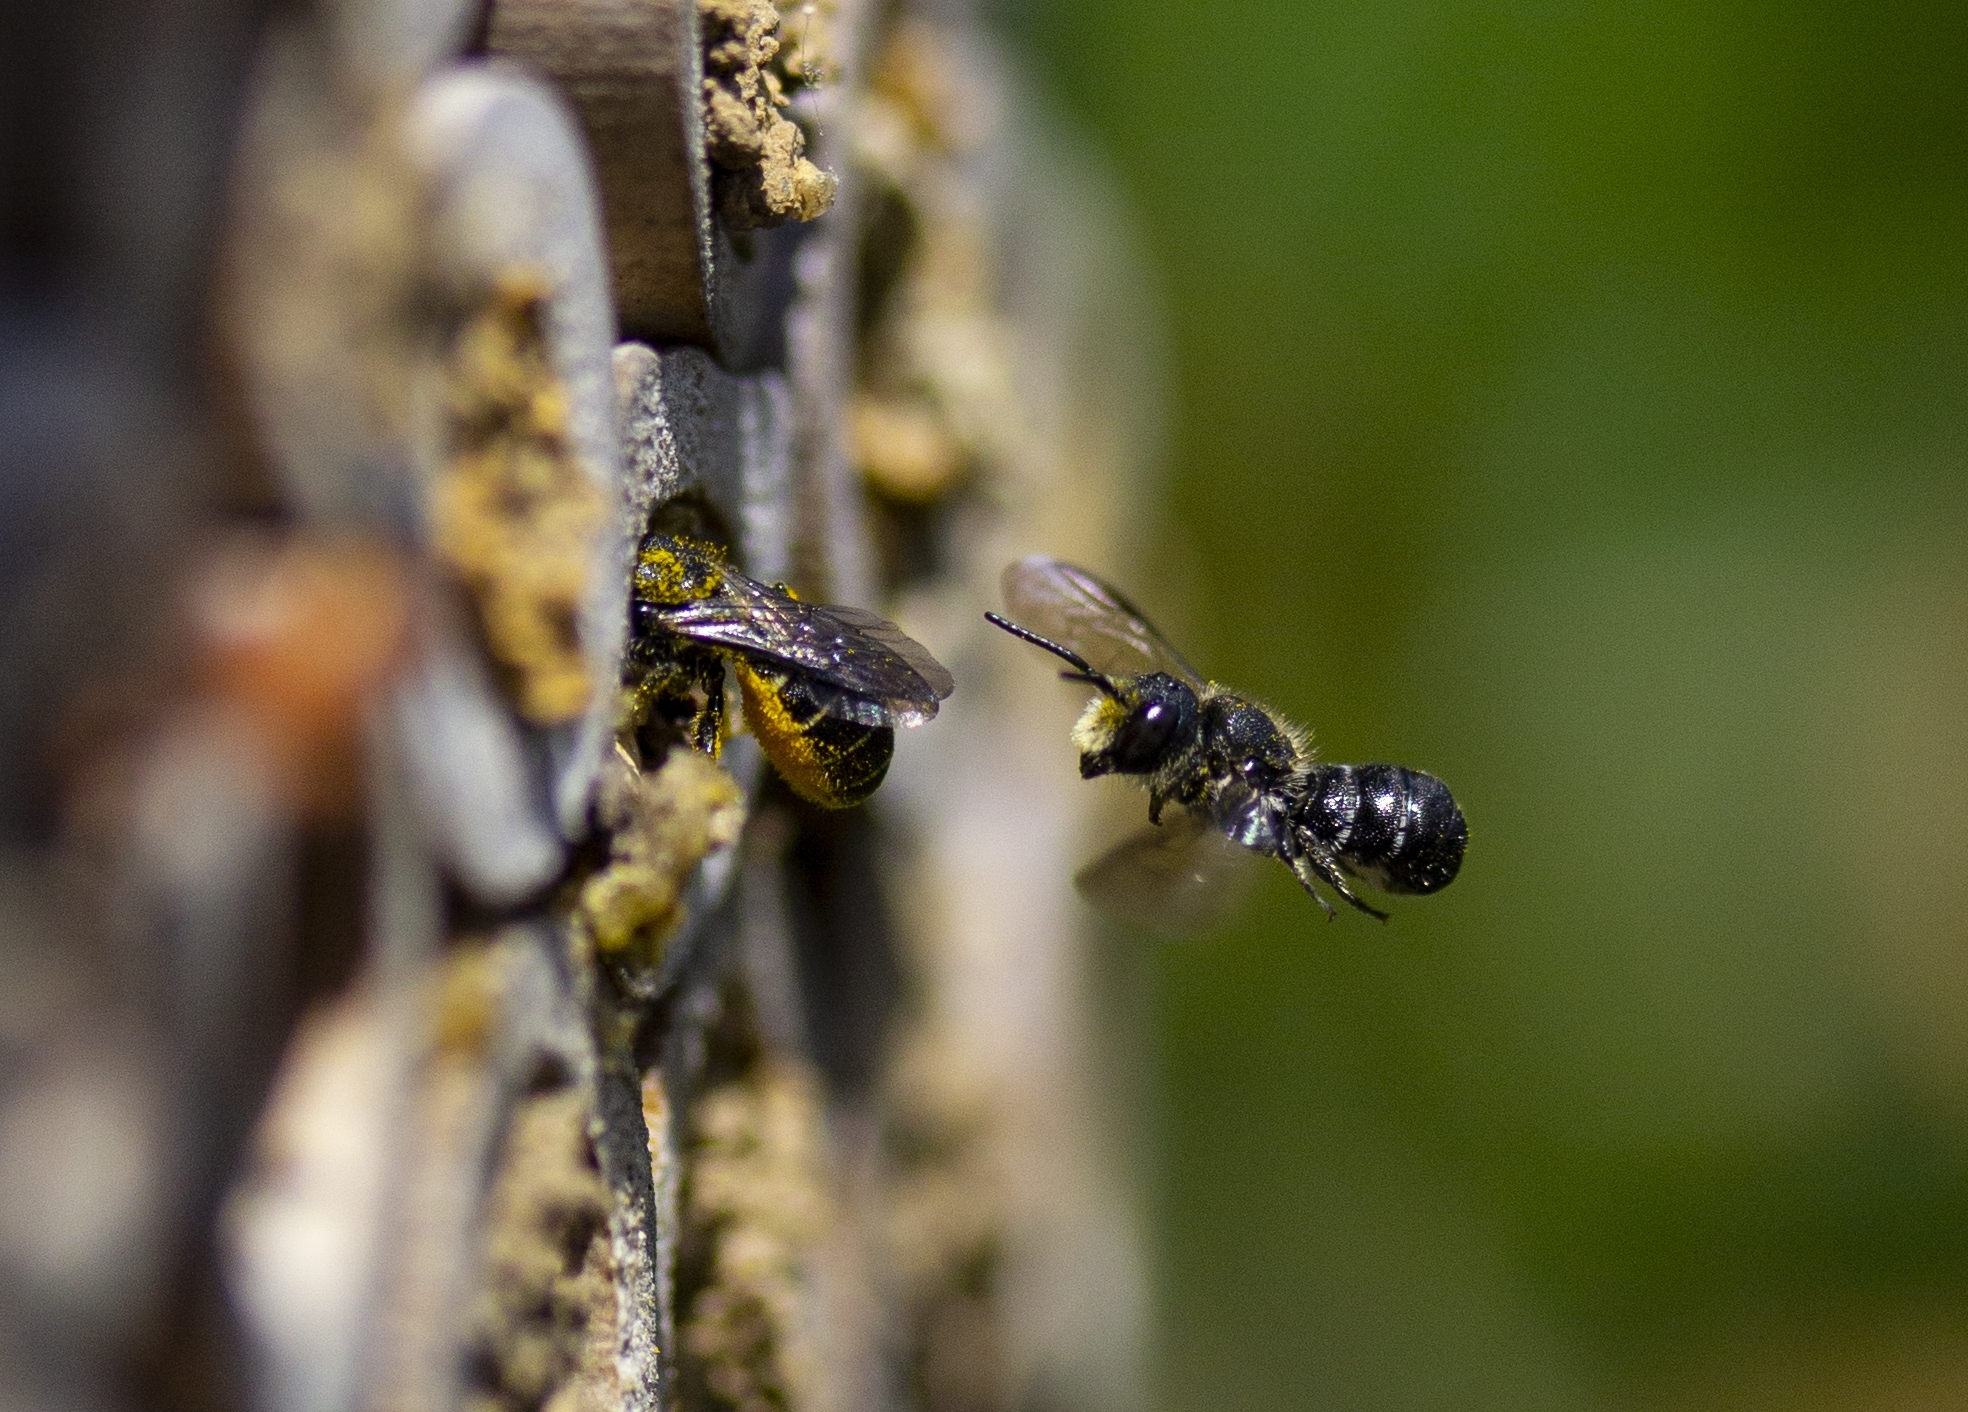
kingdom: Animalia
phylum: Arthropoda
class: Insecta
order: Hymenoptera
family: Megachilidae
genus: Heriades
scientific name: Heriades truncorum
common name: Ridge-saddled carpenter bee
